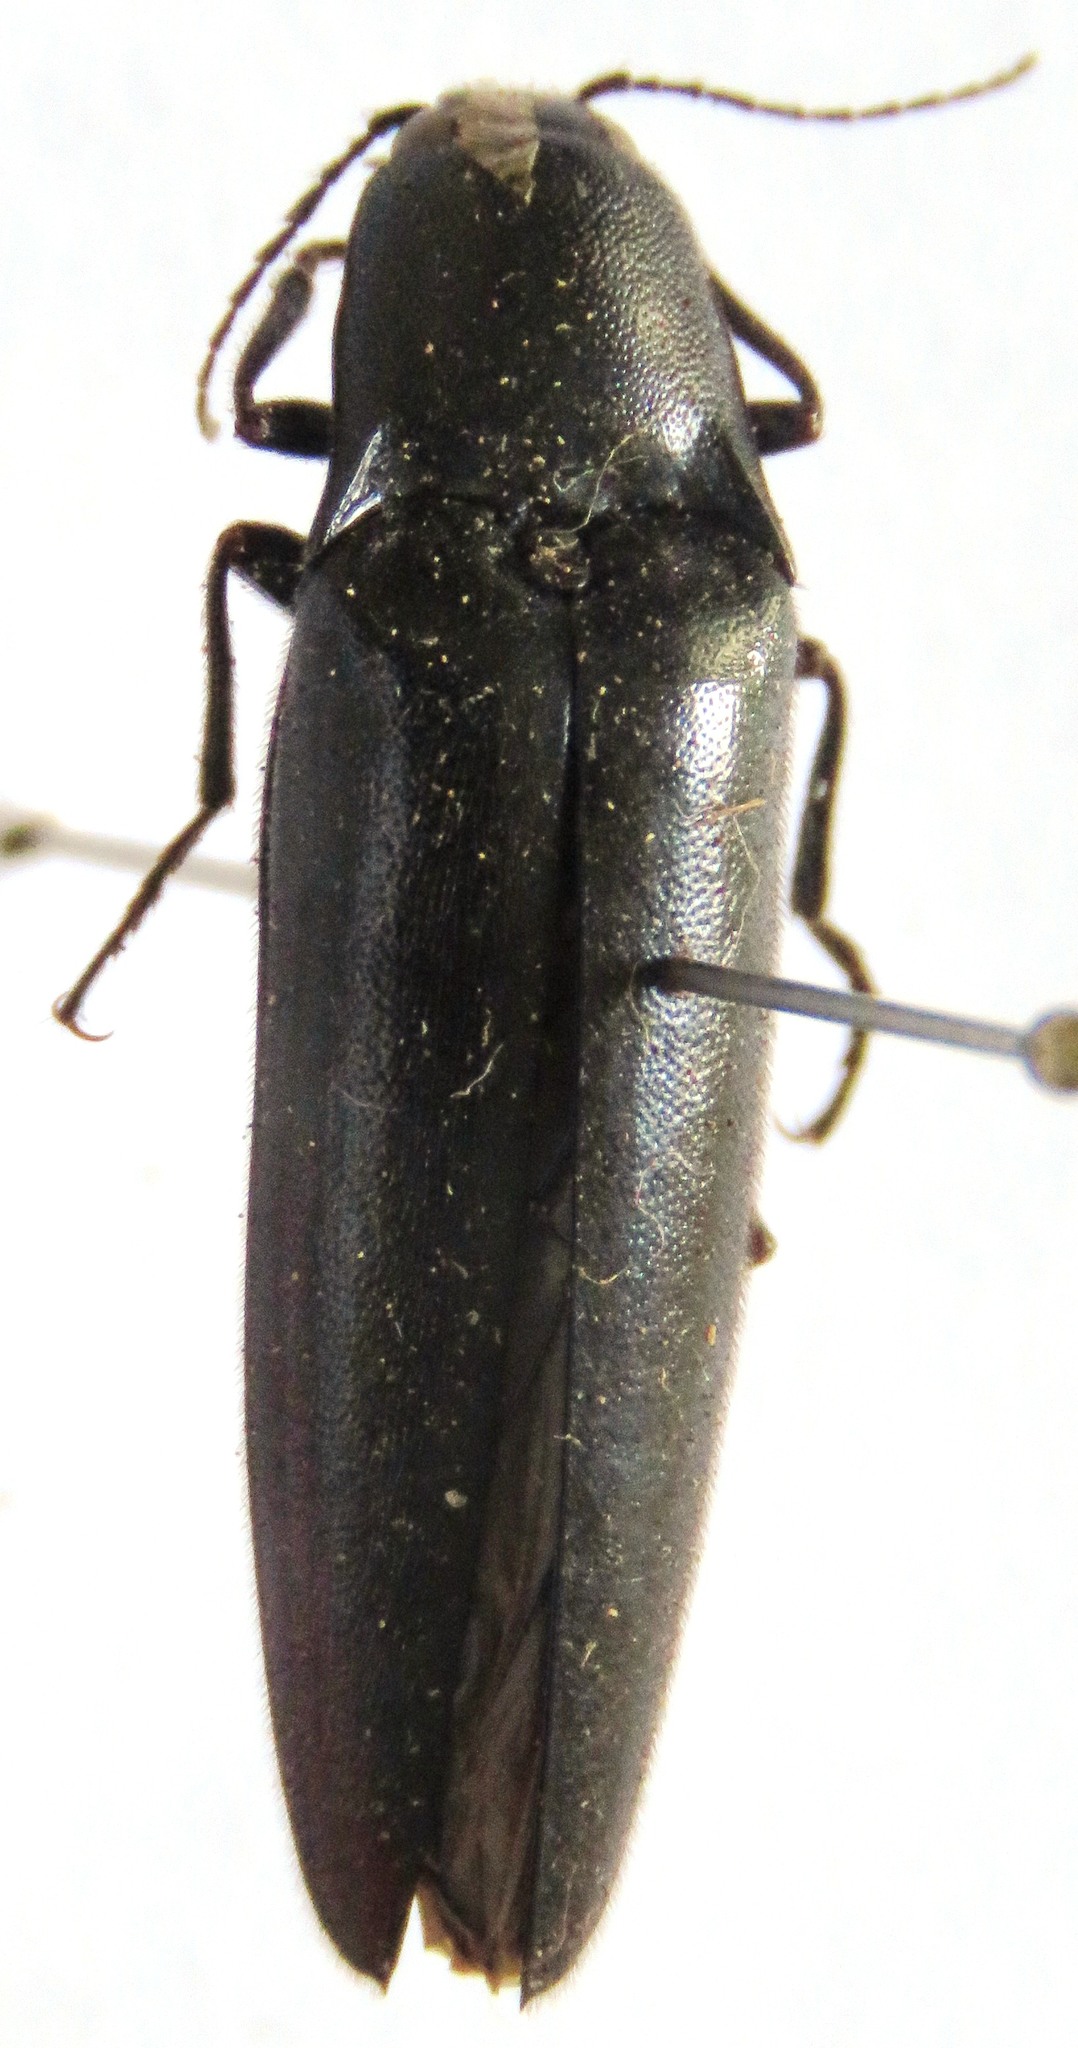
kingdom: Animalia
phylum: Arthropoda
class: Insecta
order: Coleoptera
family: Elateridae
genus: Orthostethus
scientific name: Orthostethus
